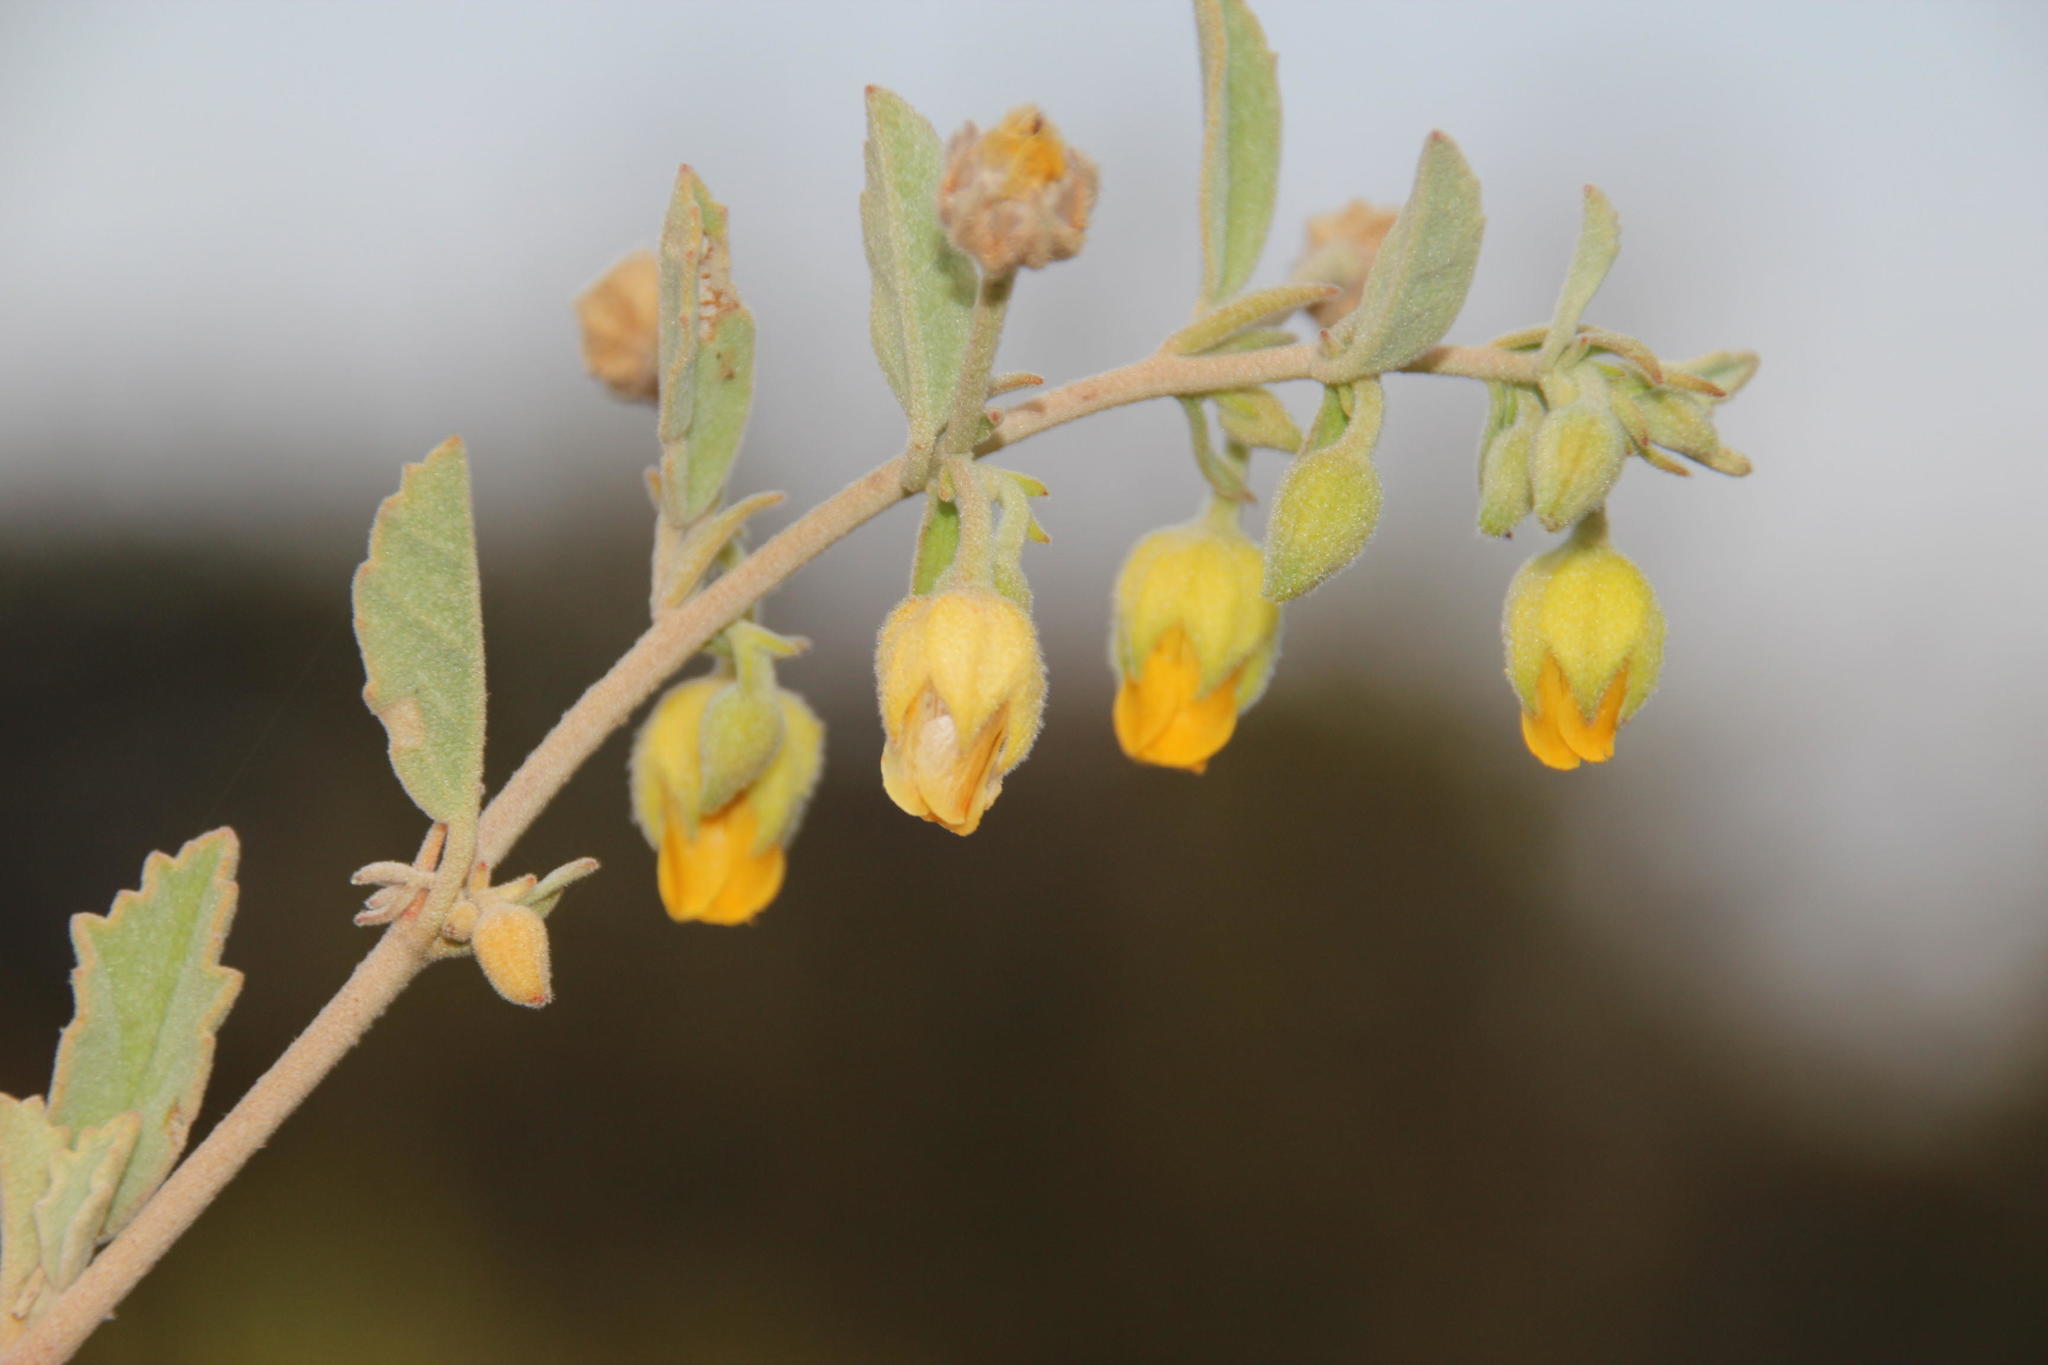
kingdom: Plantae
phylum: Tracheophyta
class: Magnoliopsida
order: Malvales
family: Malvaceae
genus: Hermannia
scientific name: Hermannia althaeifolia
